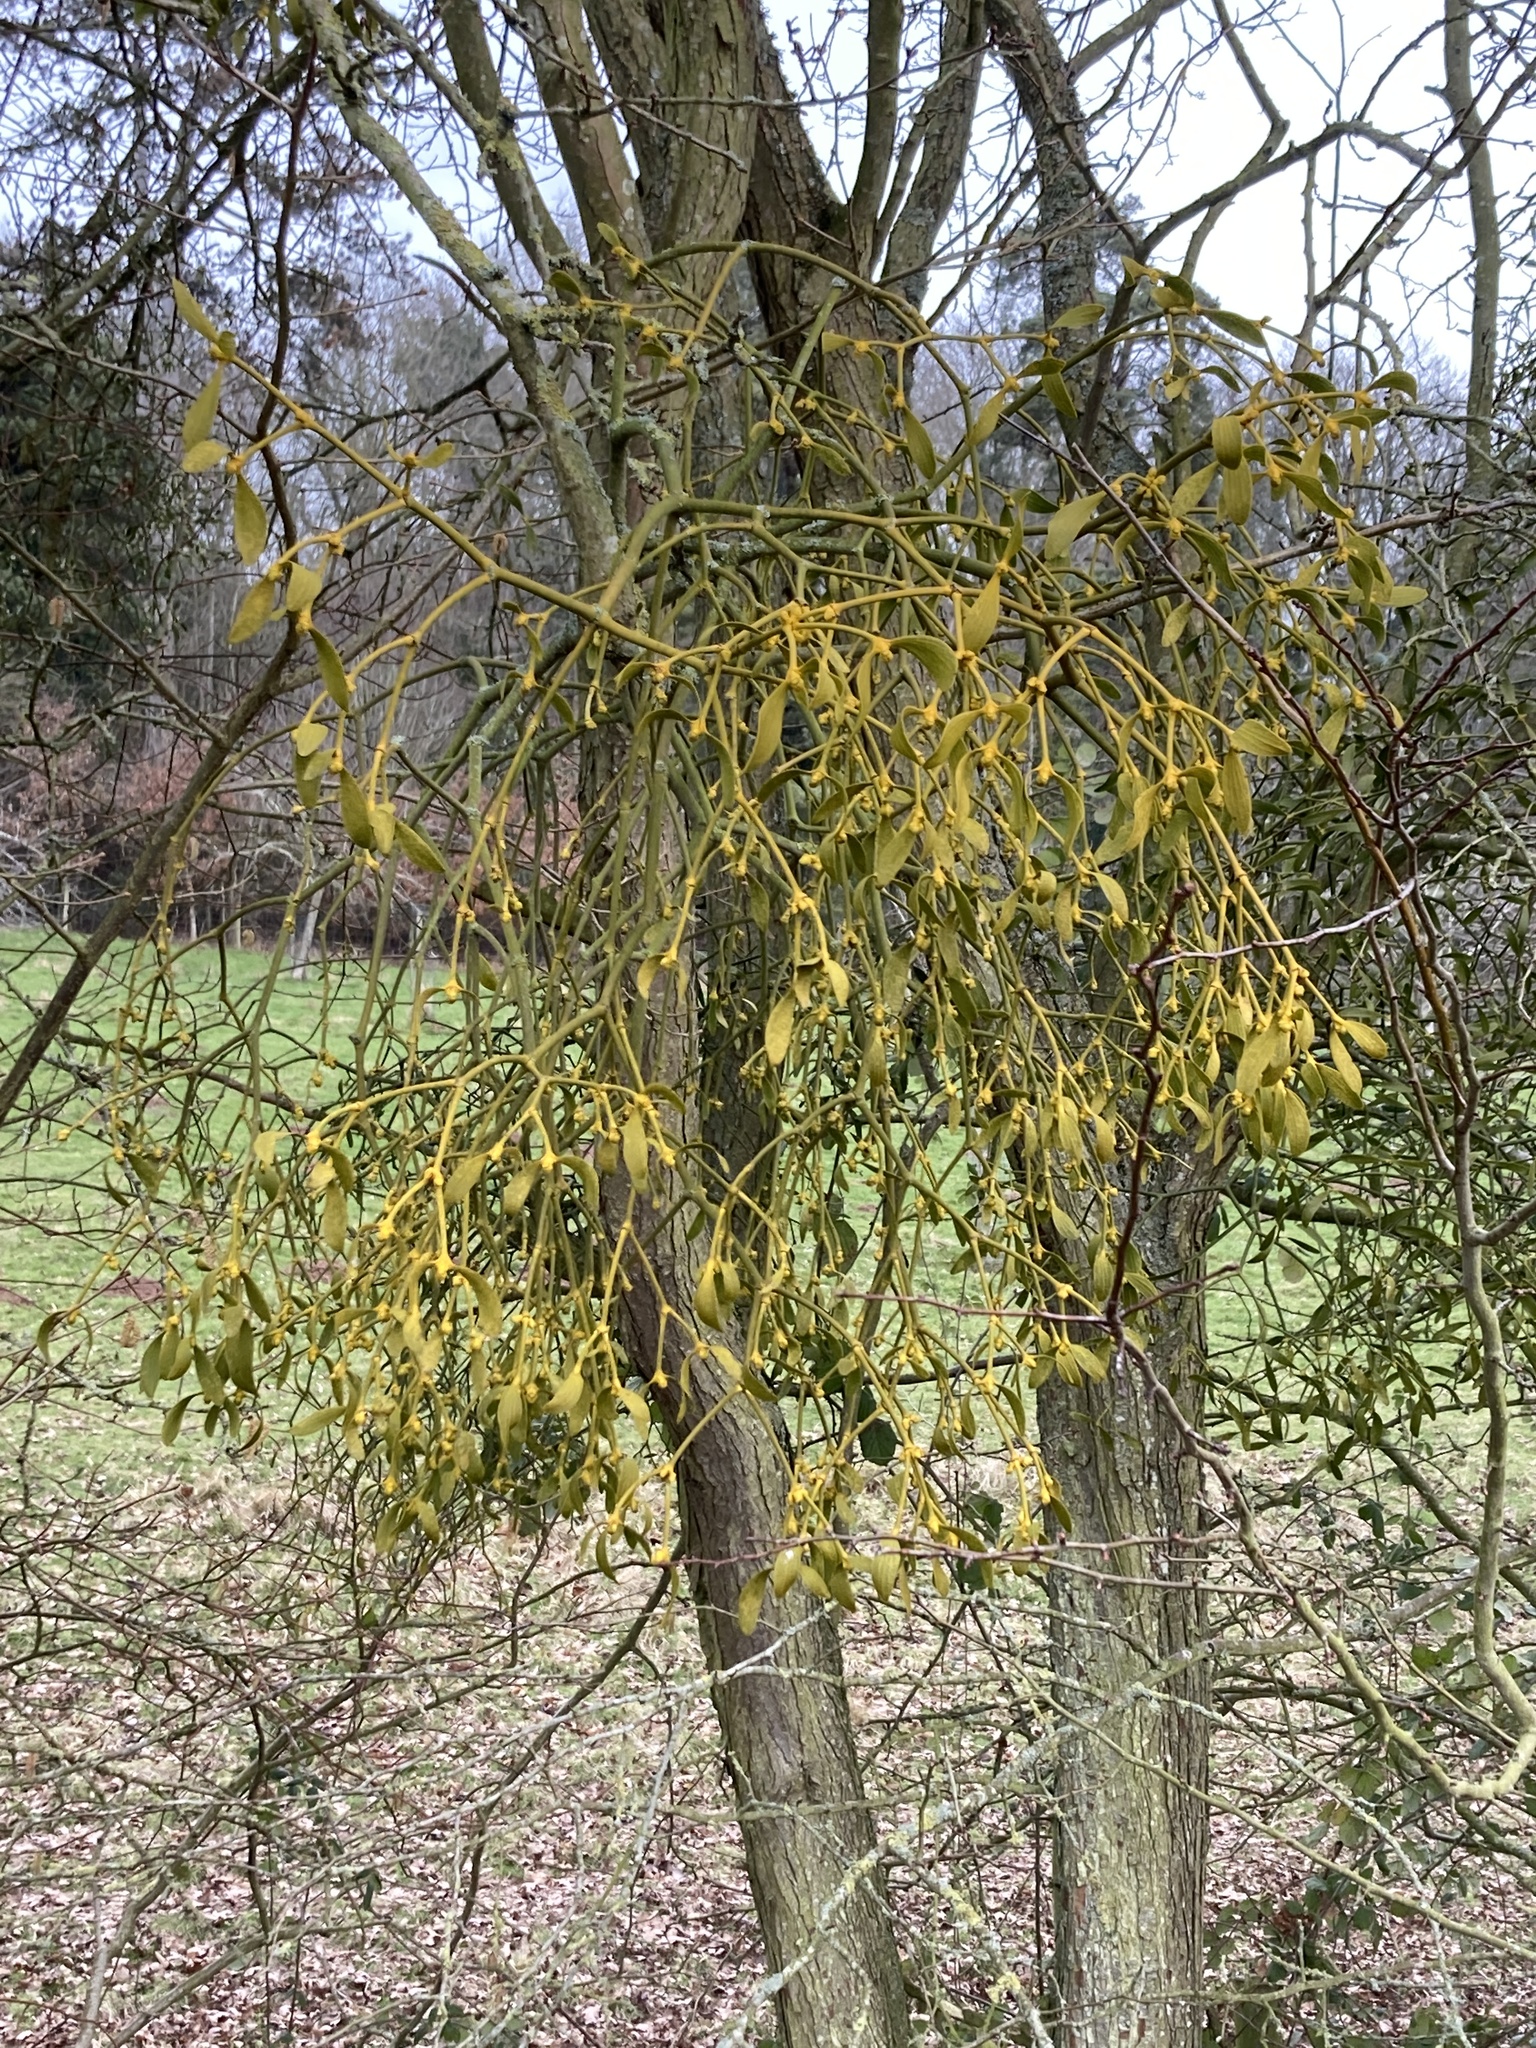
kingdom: Plantae
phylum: Tracheophyta
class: Magnoliopsida
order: Santalales
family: Viscaceae
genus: Viscum
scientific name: Viscum album
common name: Mistletoe
